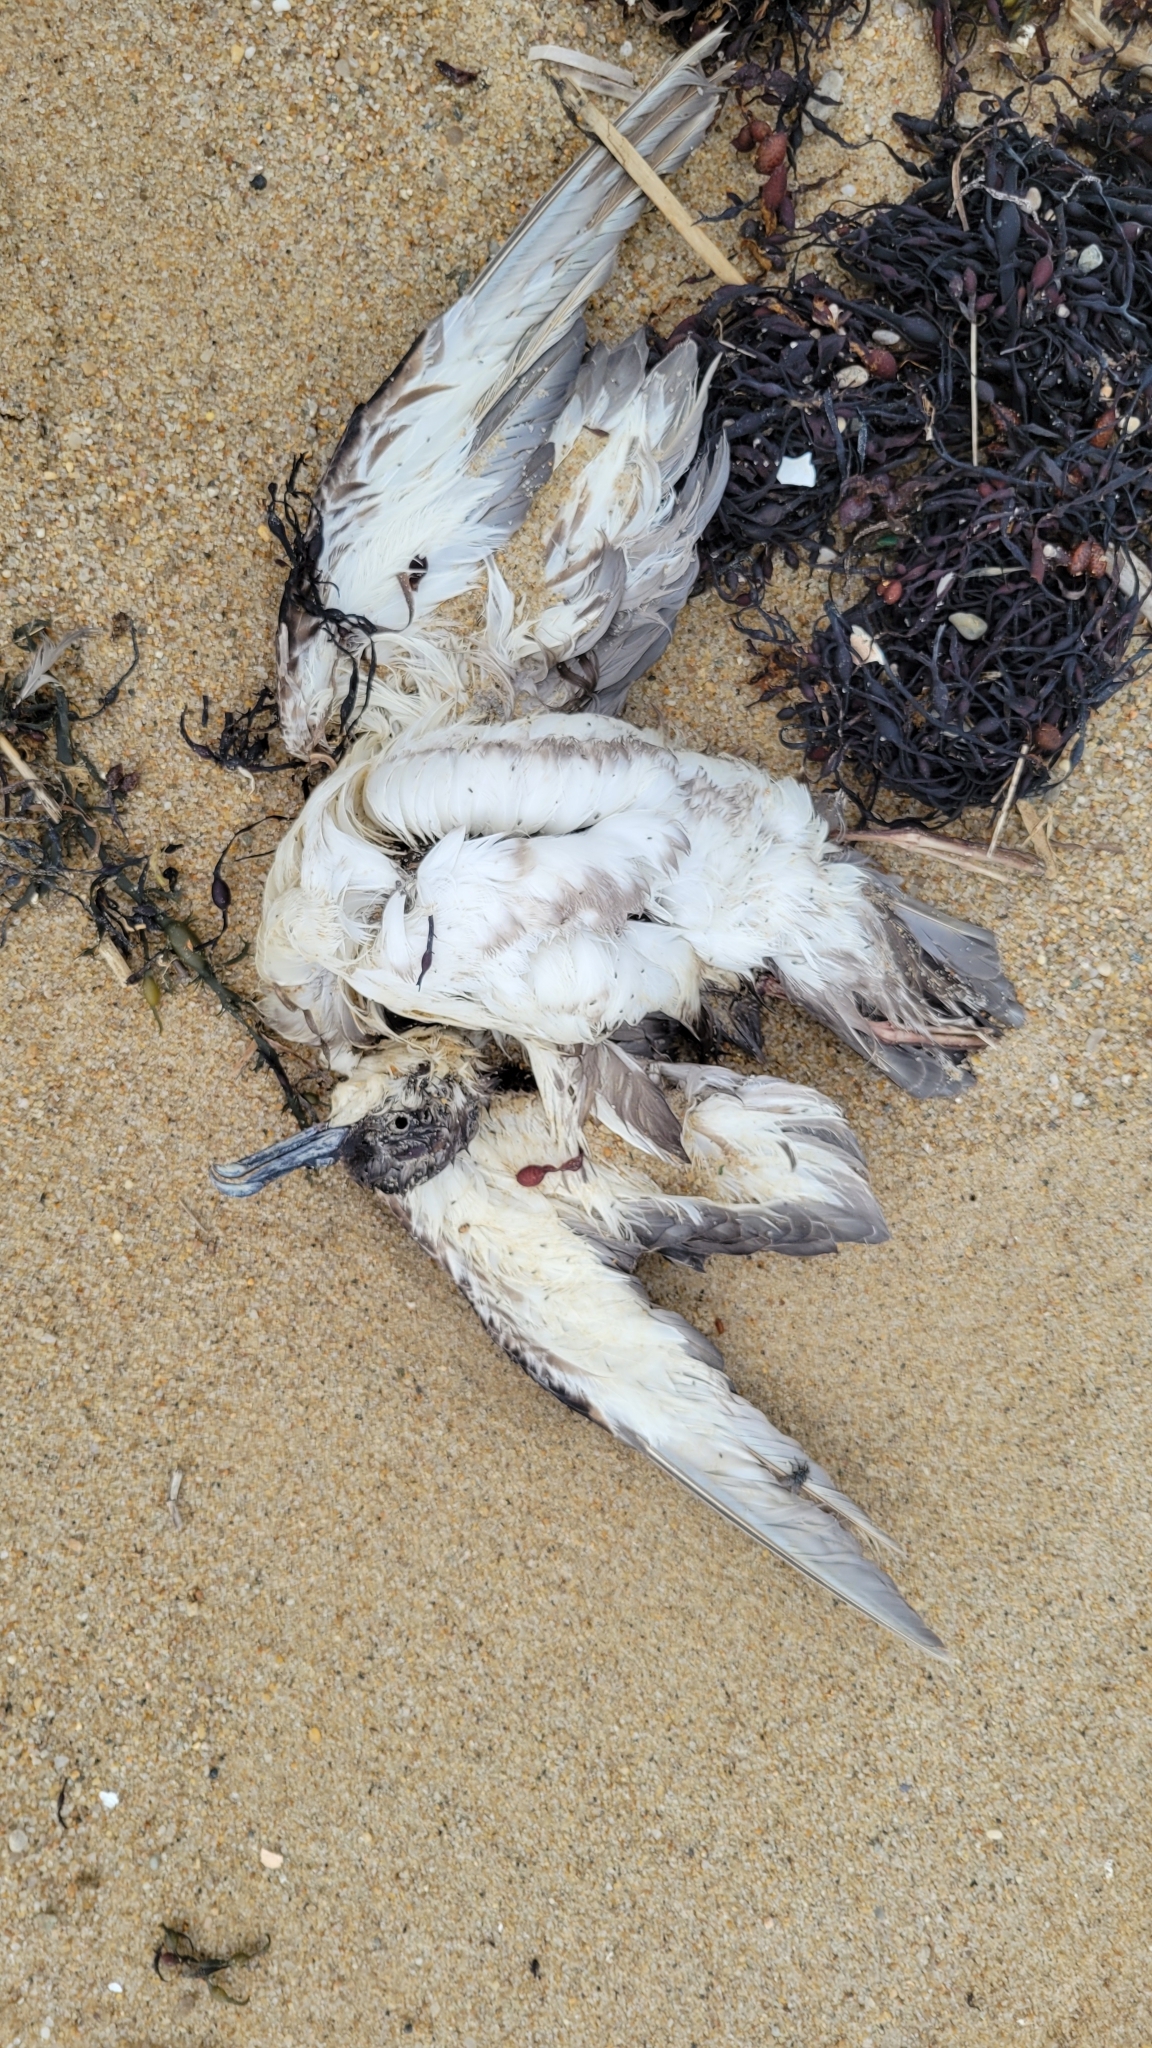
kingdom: Animalia
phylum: Chordata
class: Aves
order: Procellariiformes
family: Procellariidae
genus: Puffinus
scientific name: Puffinus gravis
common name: Great shearwater
